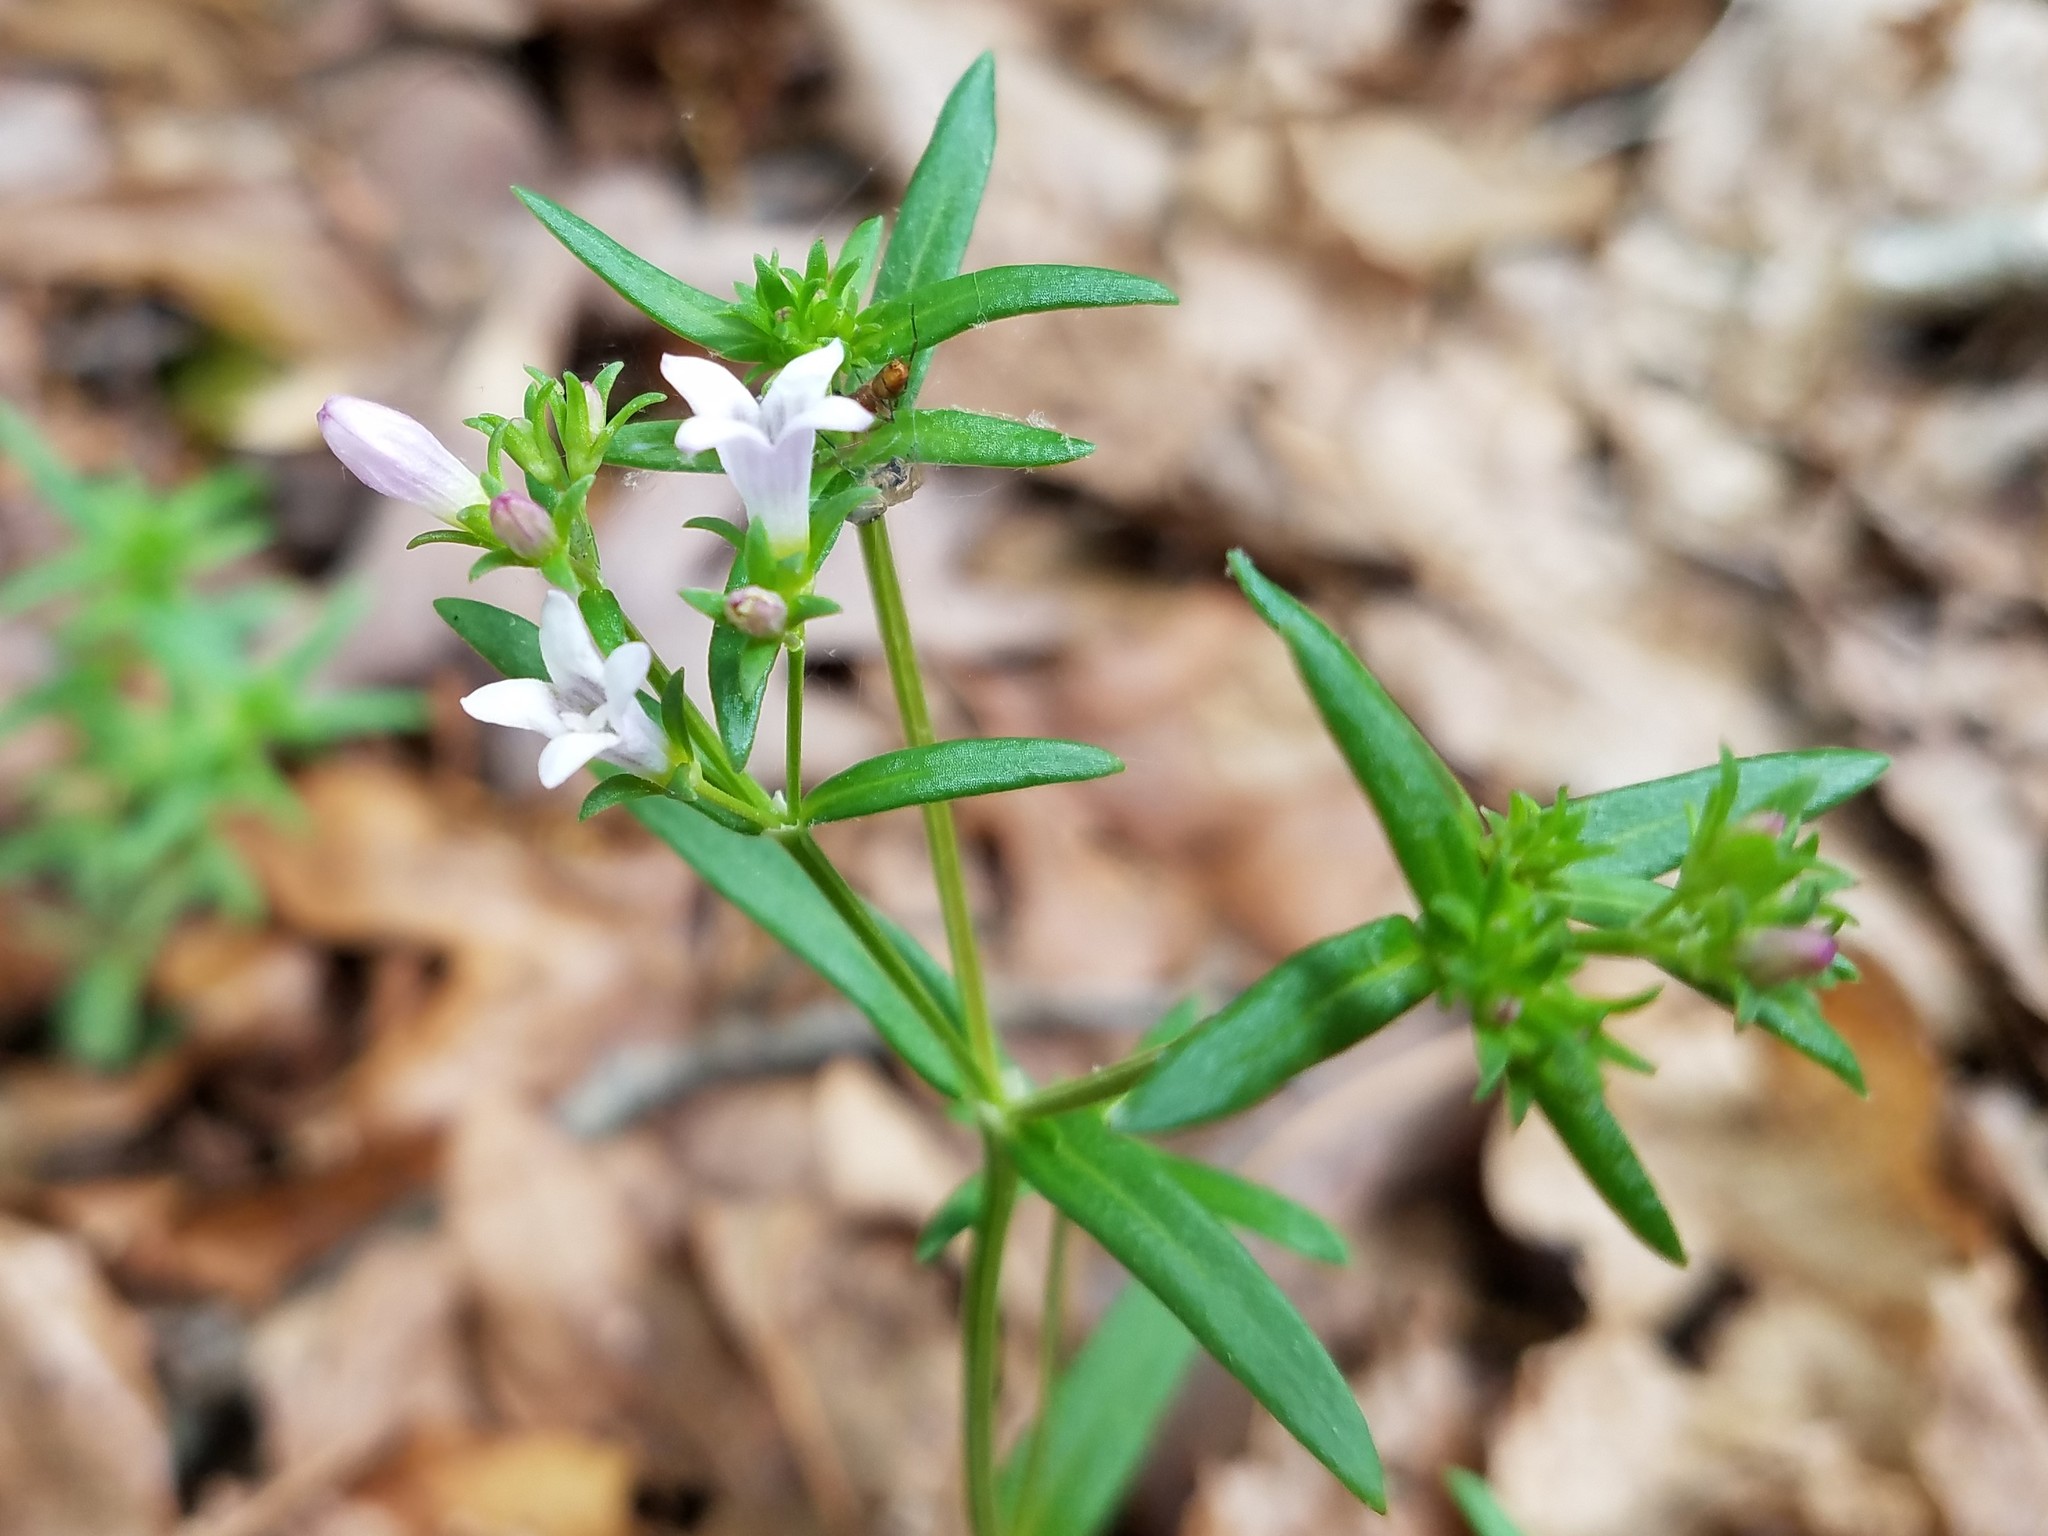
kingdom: Plantae
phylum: Tracheophyta
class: Magnoliopsida
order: Gentianales
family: Rubiaceae
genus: Houstonia
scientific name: Houstonia longifolia
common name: Long-leaved bluets
